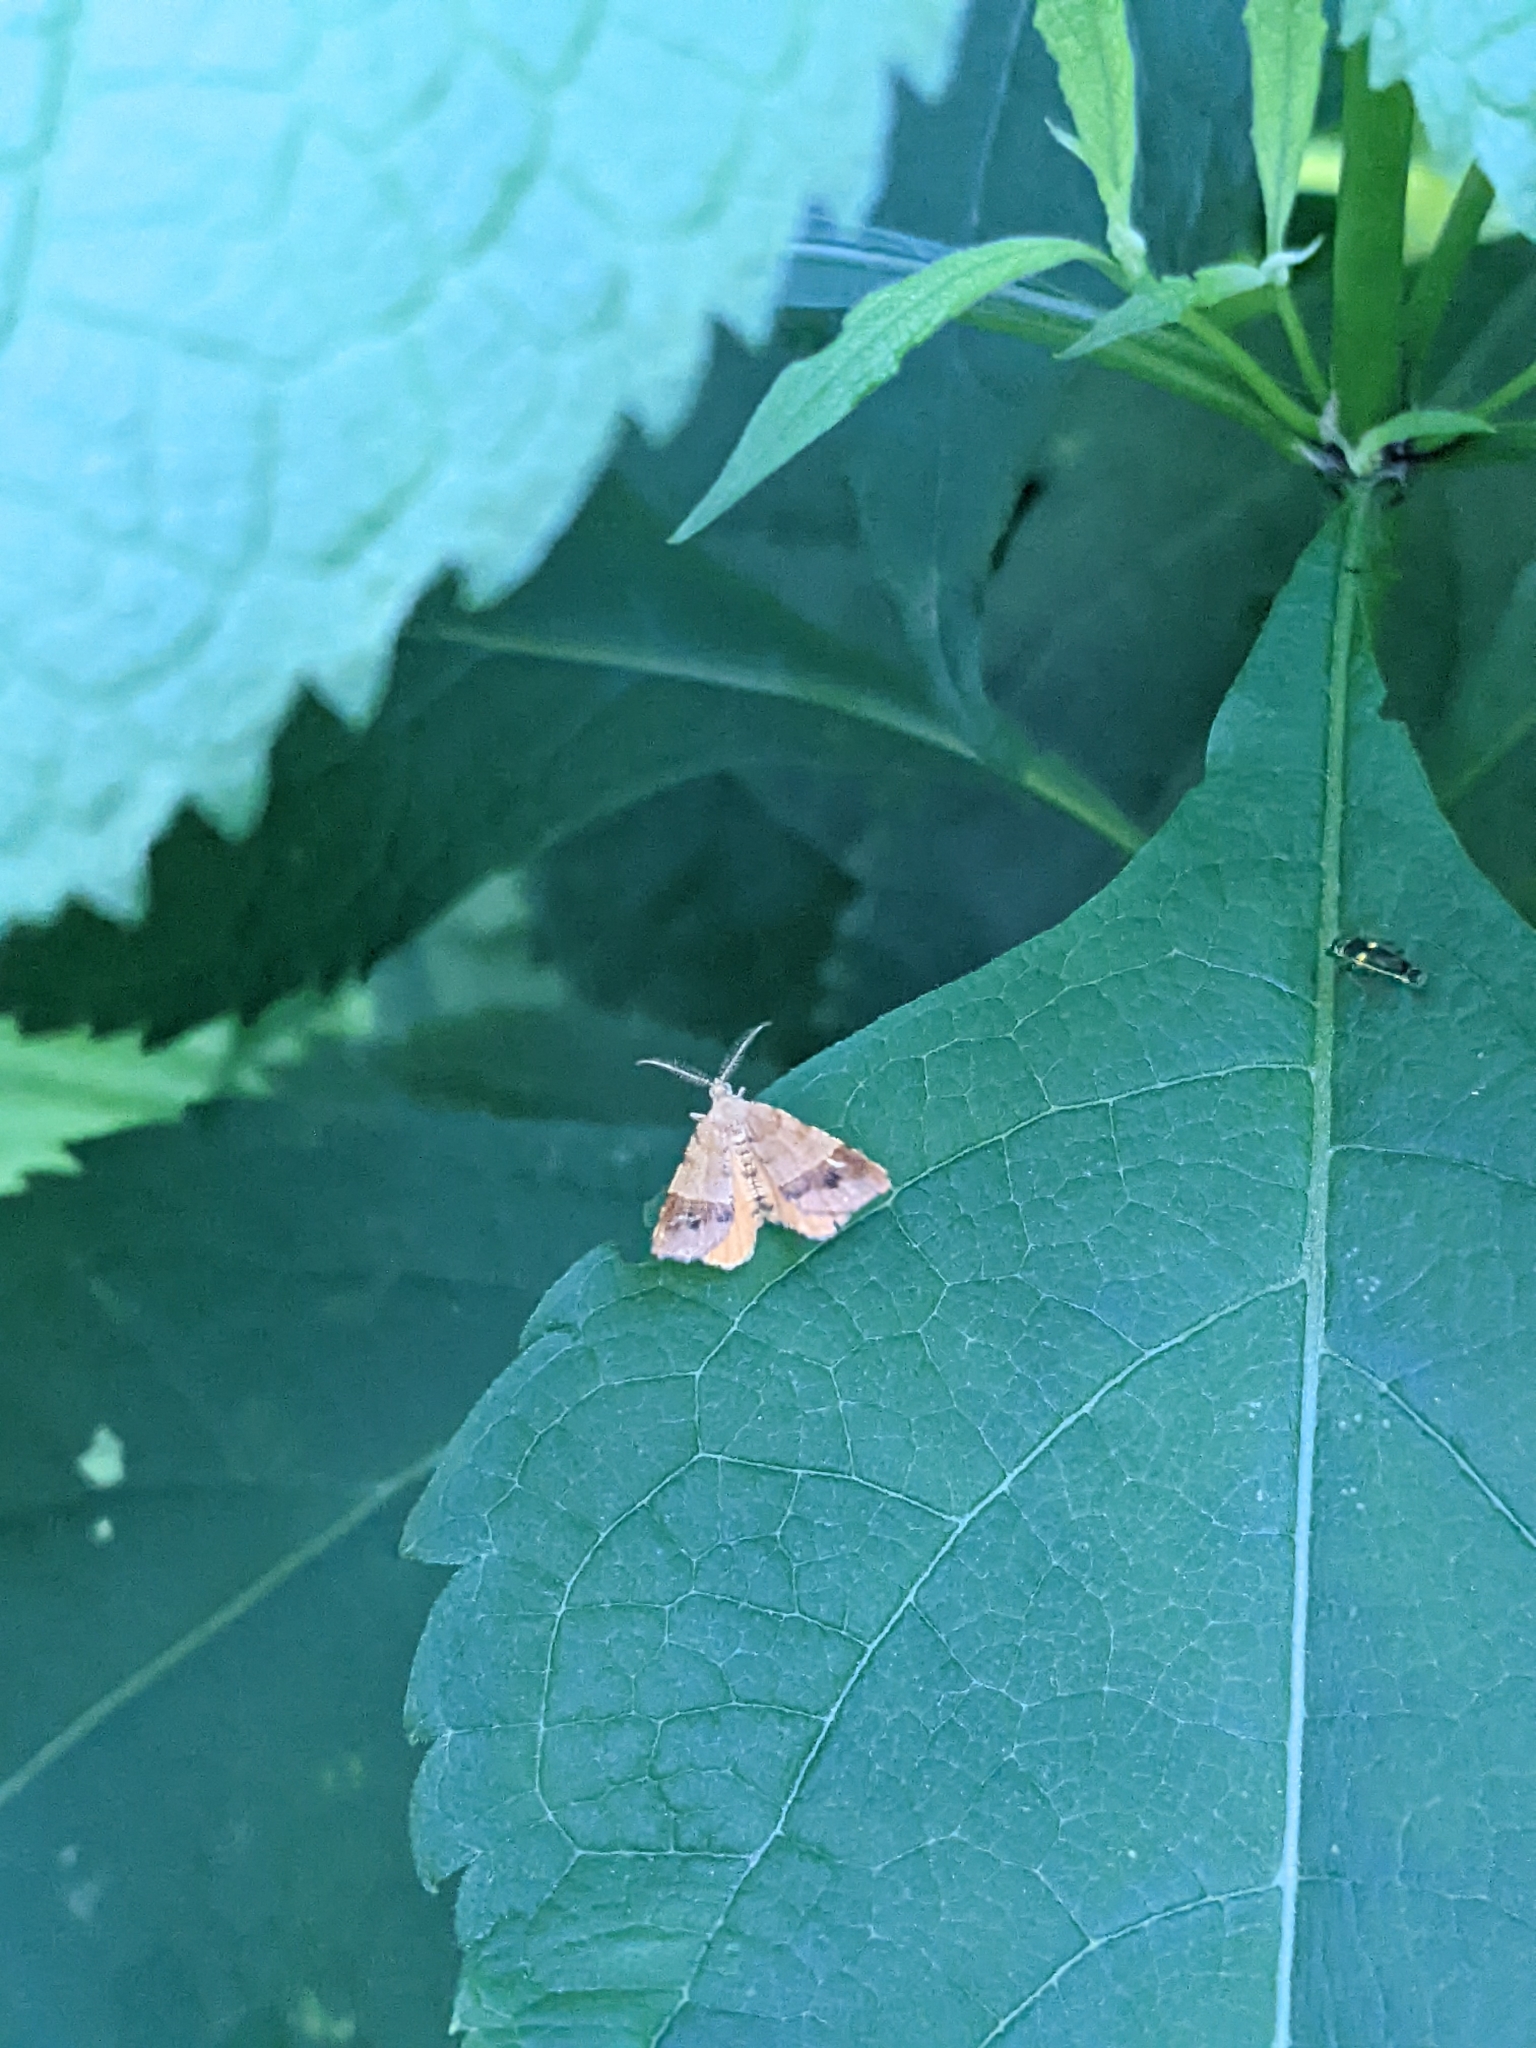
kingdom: Animalia
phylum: Arthropoda
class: Insecta
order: Lepidoptera
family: Geometridae
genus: Mellilla
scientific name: Mellilla xanthometata
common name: Orange wing moth
